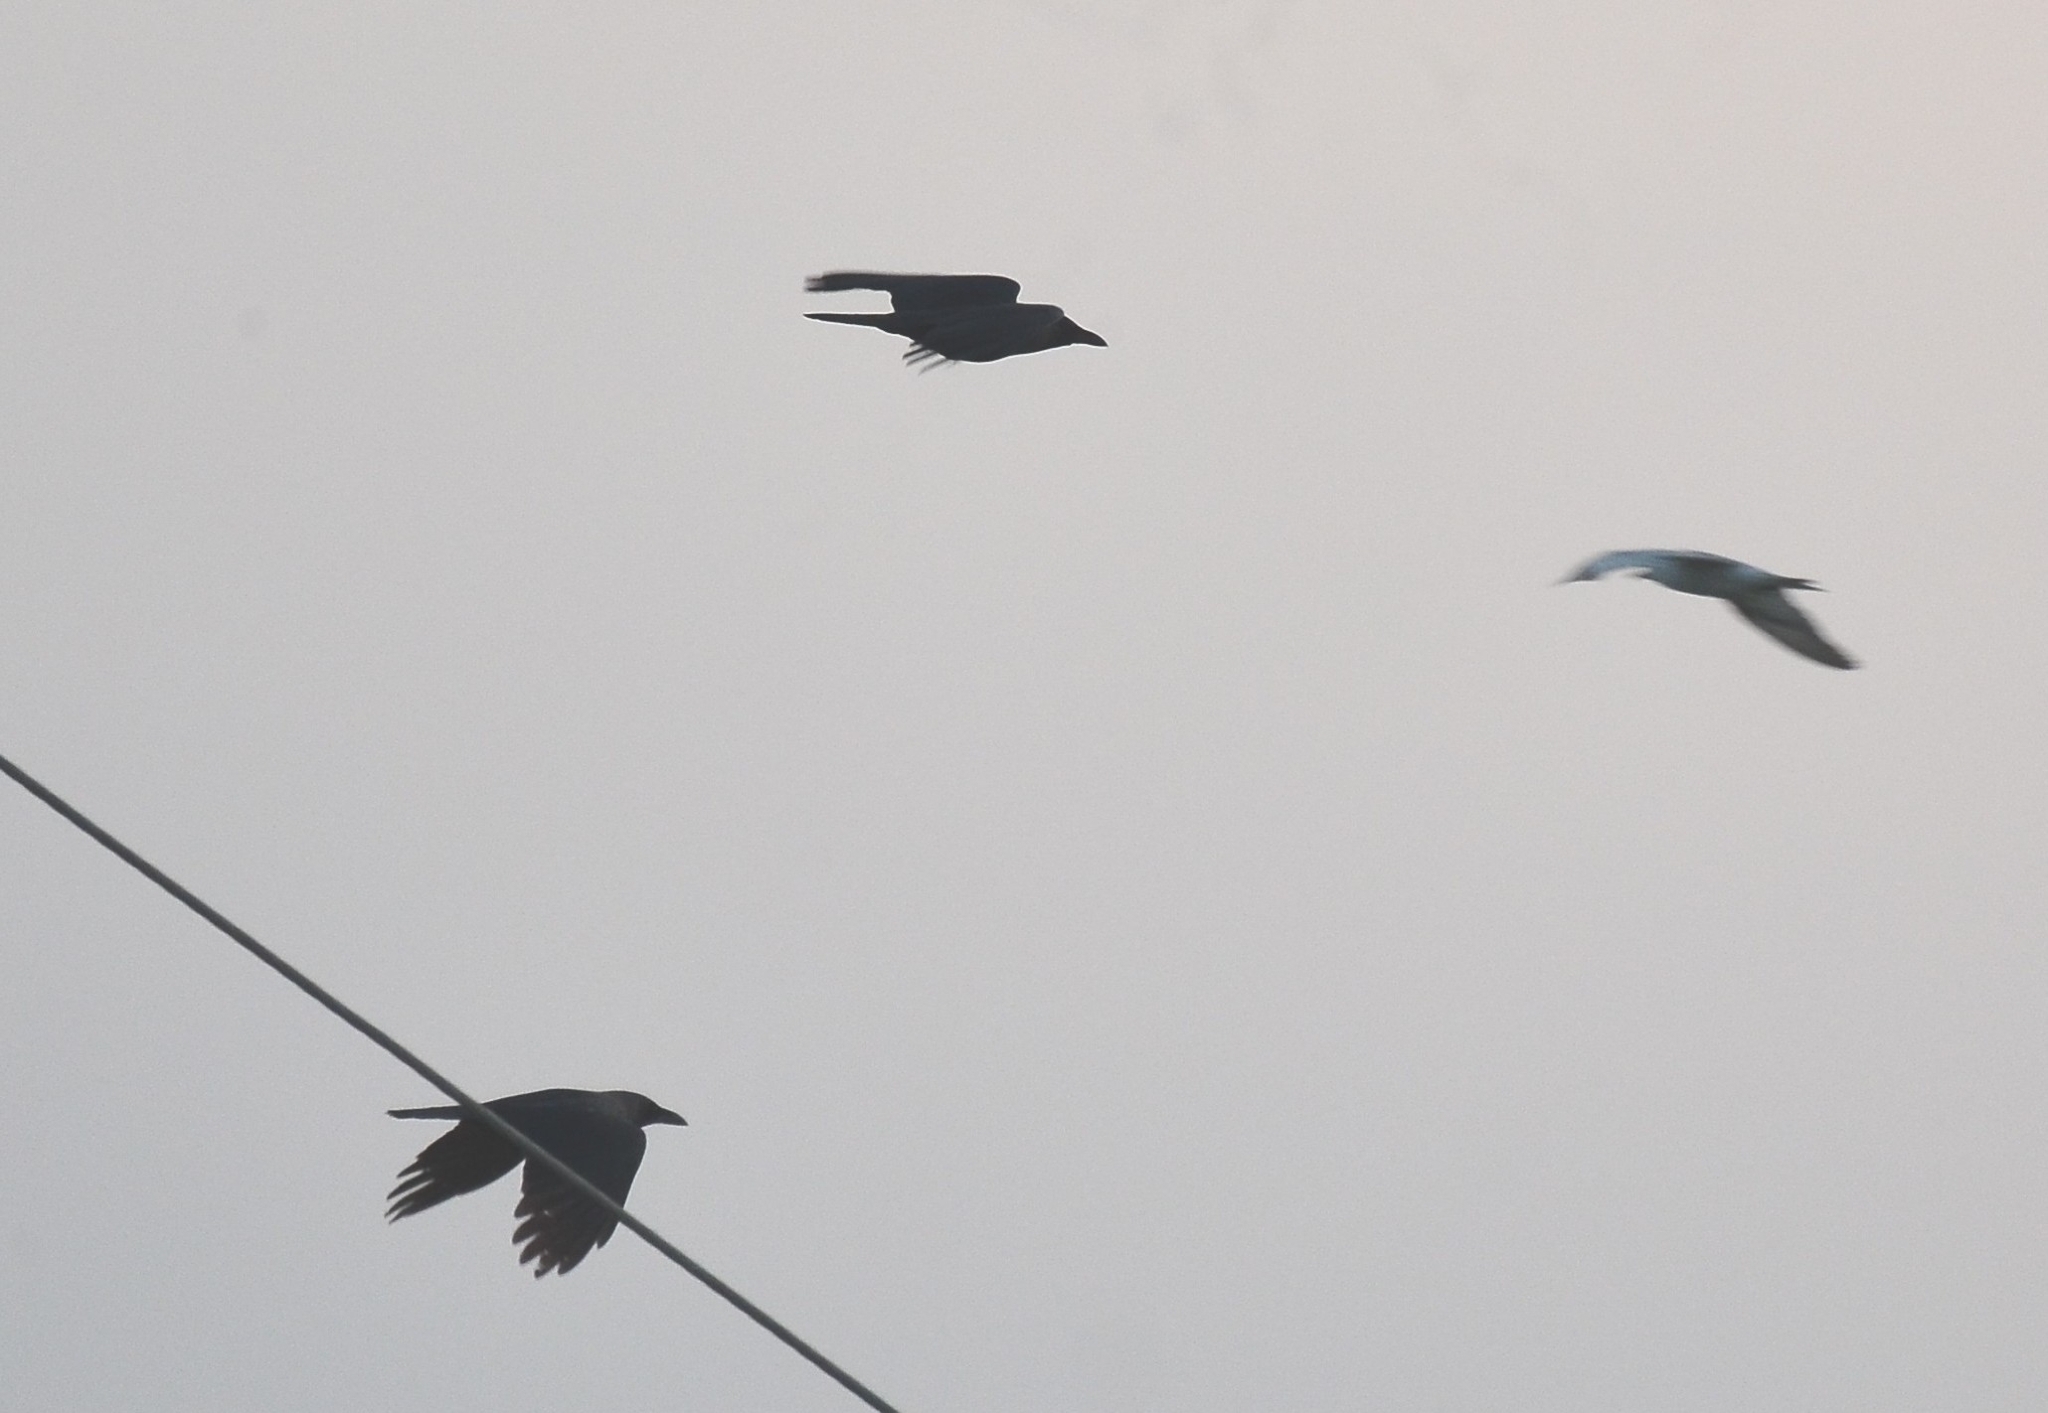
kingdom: Animalia
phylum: Chordata
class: Aves
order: Passeriformes
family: Corvidae
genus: Corvus
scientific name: Corvus splendens
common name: House crow
